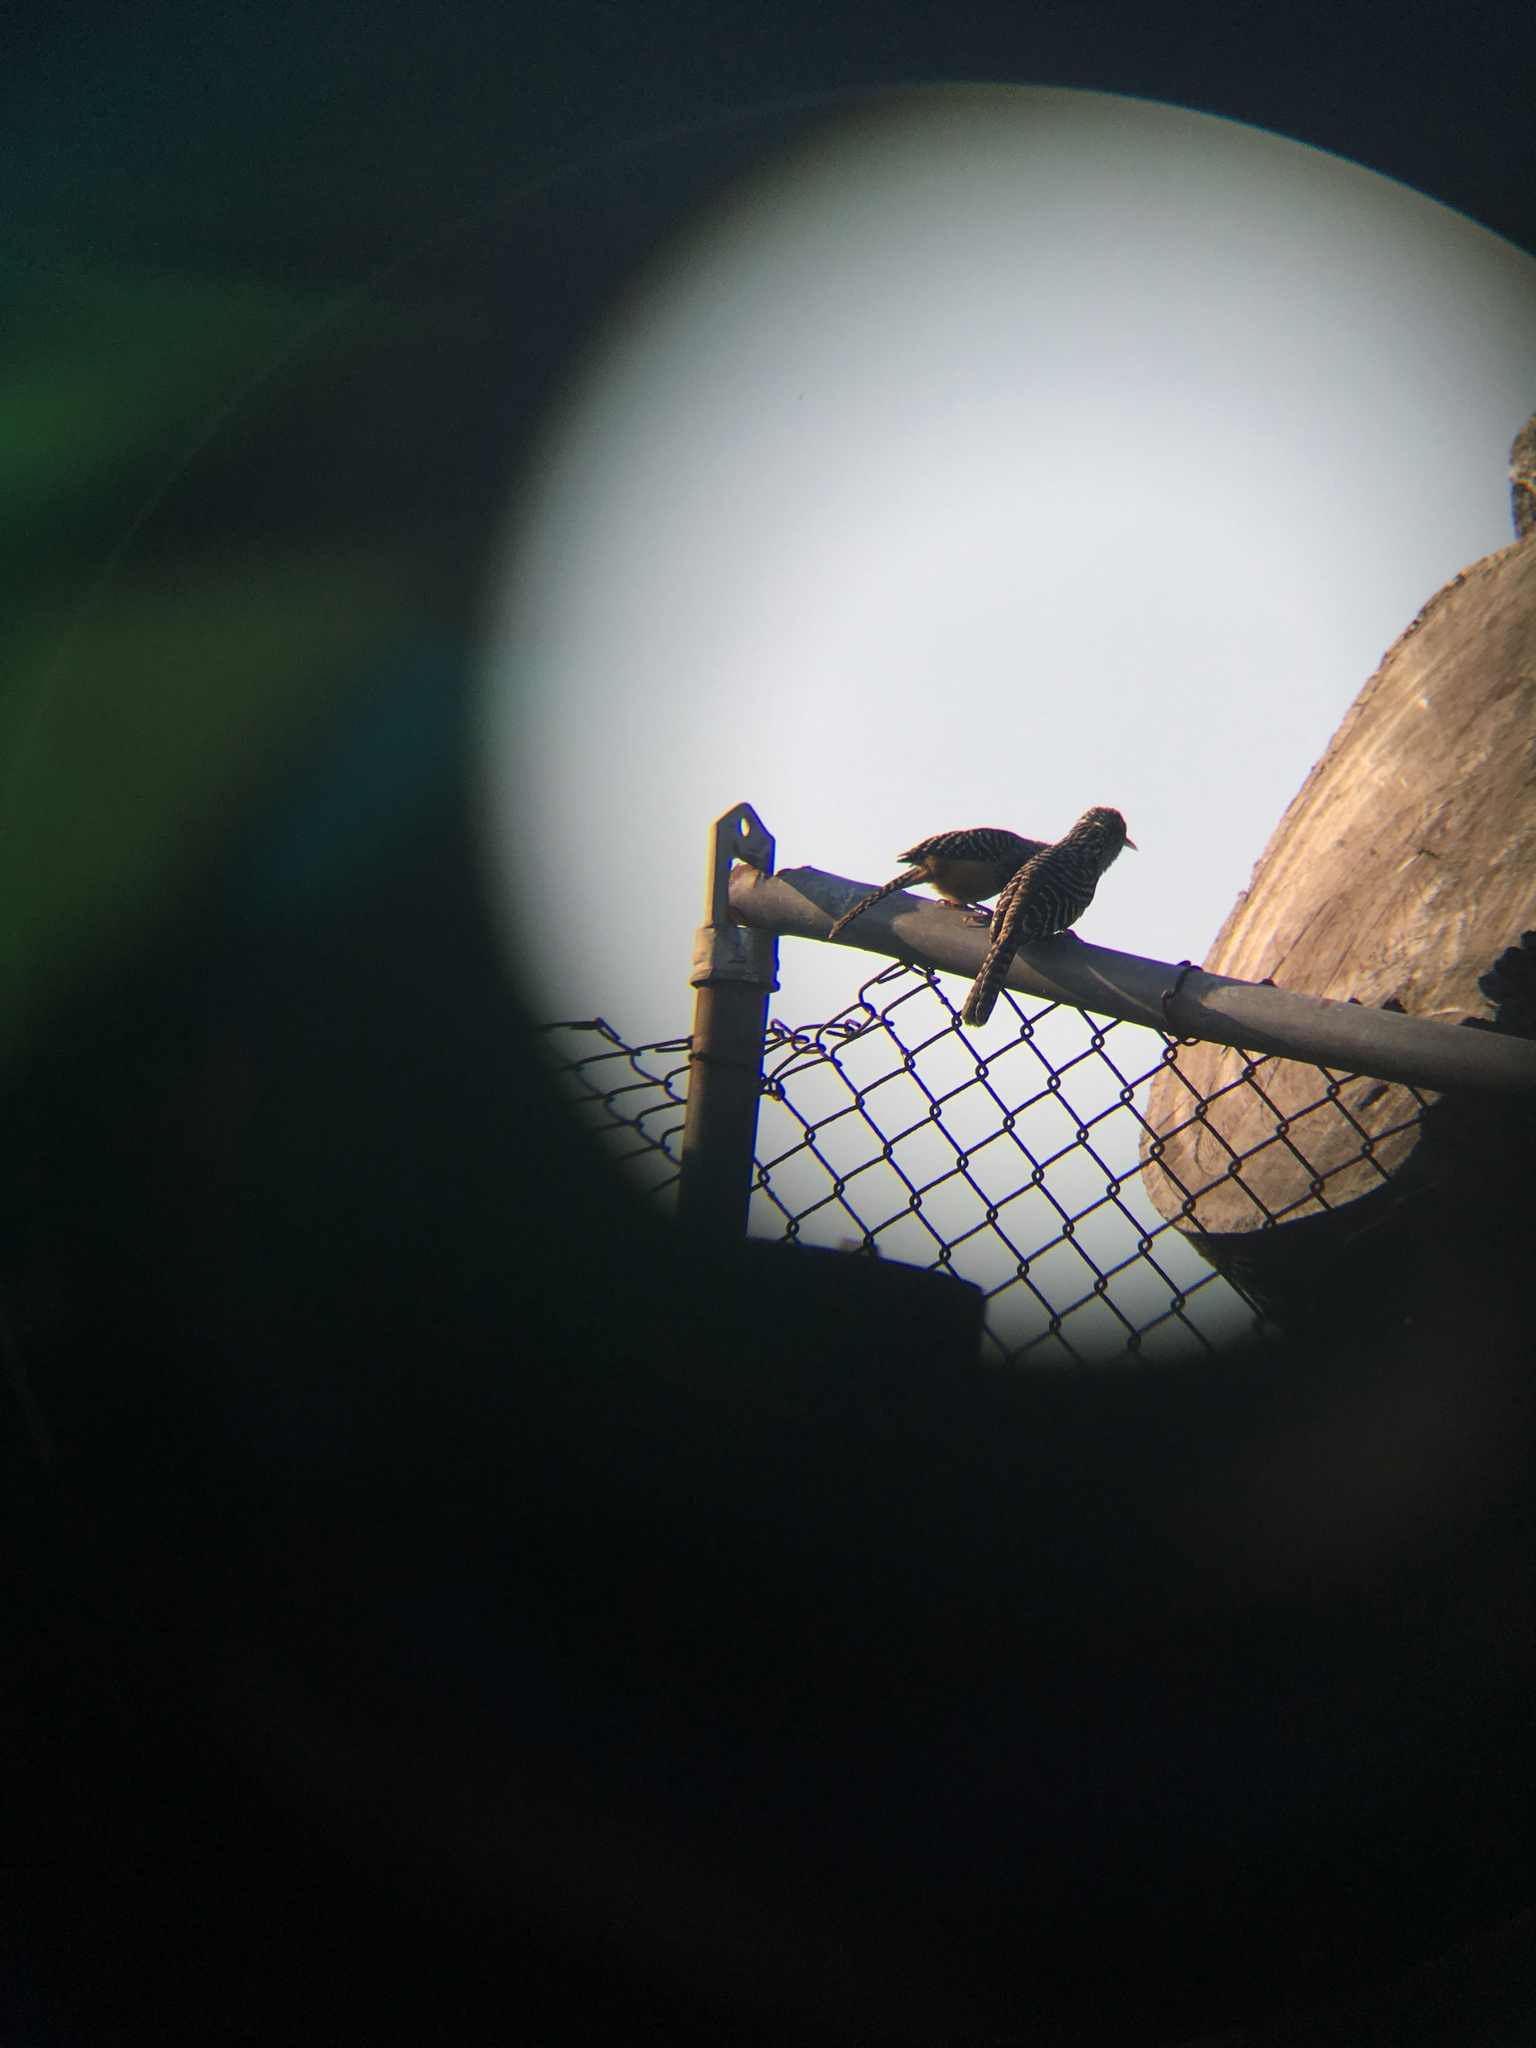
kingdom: Animalia
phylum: Chordata
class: Aves
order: Passeriformes
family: Troglodytidae
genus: Campylorhynchus
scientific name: Campylorhynchus zonatus
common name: Band-backed wren
